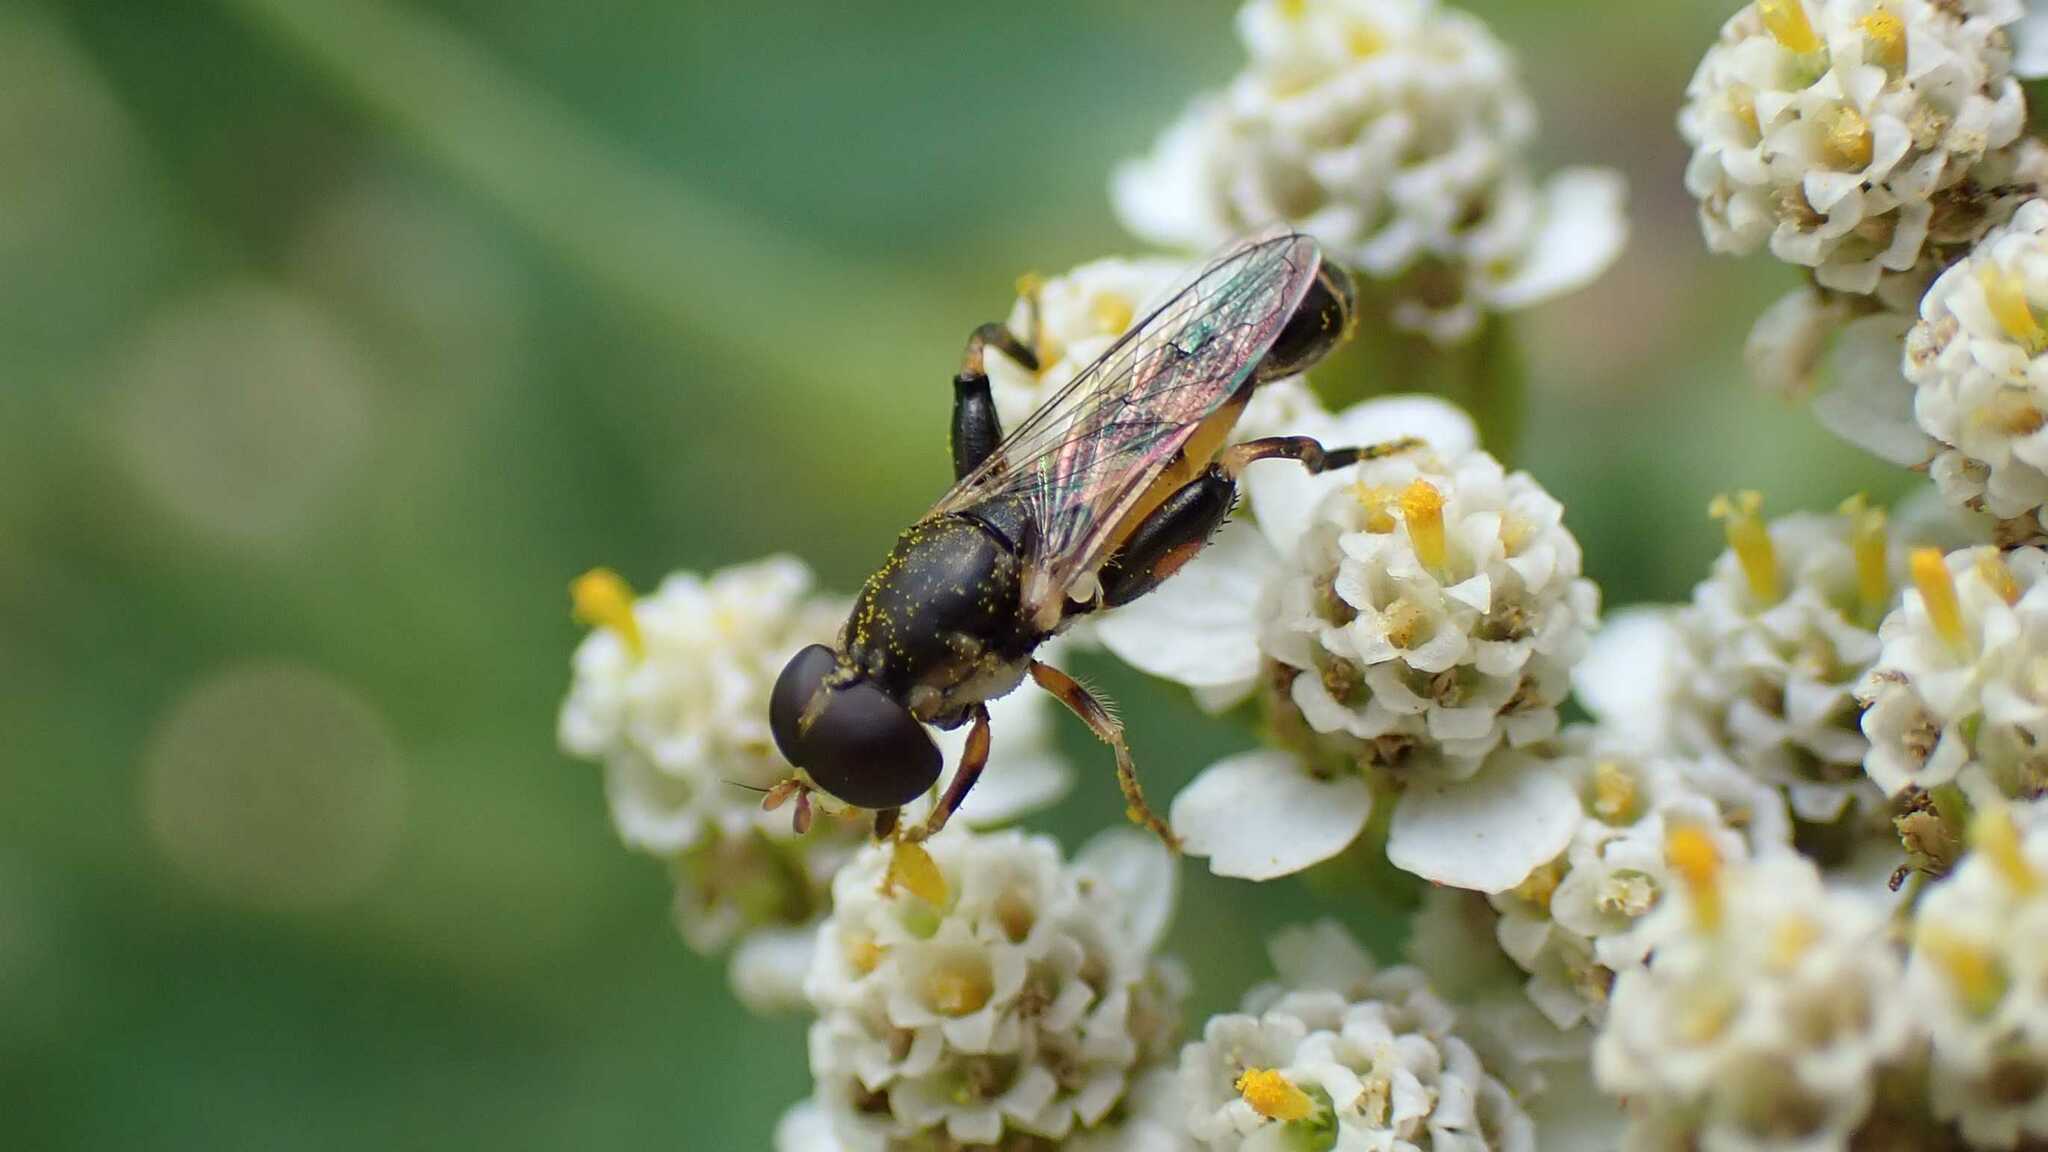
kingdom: Animalia
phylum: Arthropoda
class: Insecta
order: Diptera
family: Syrphidae
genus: Syritta
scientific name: Syritta pipiens
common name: Hover fly
